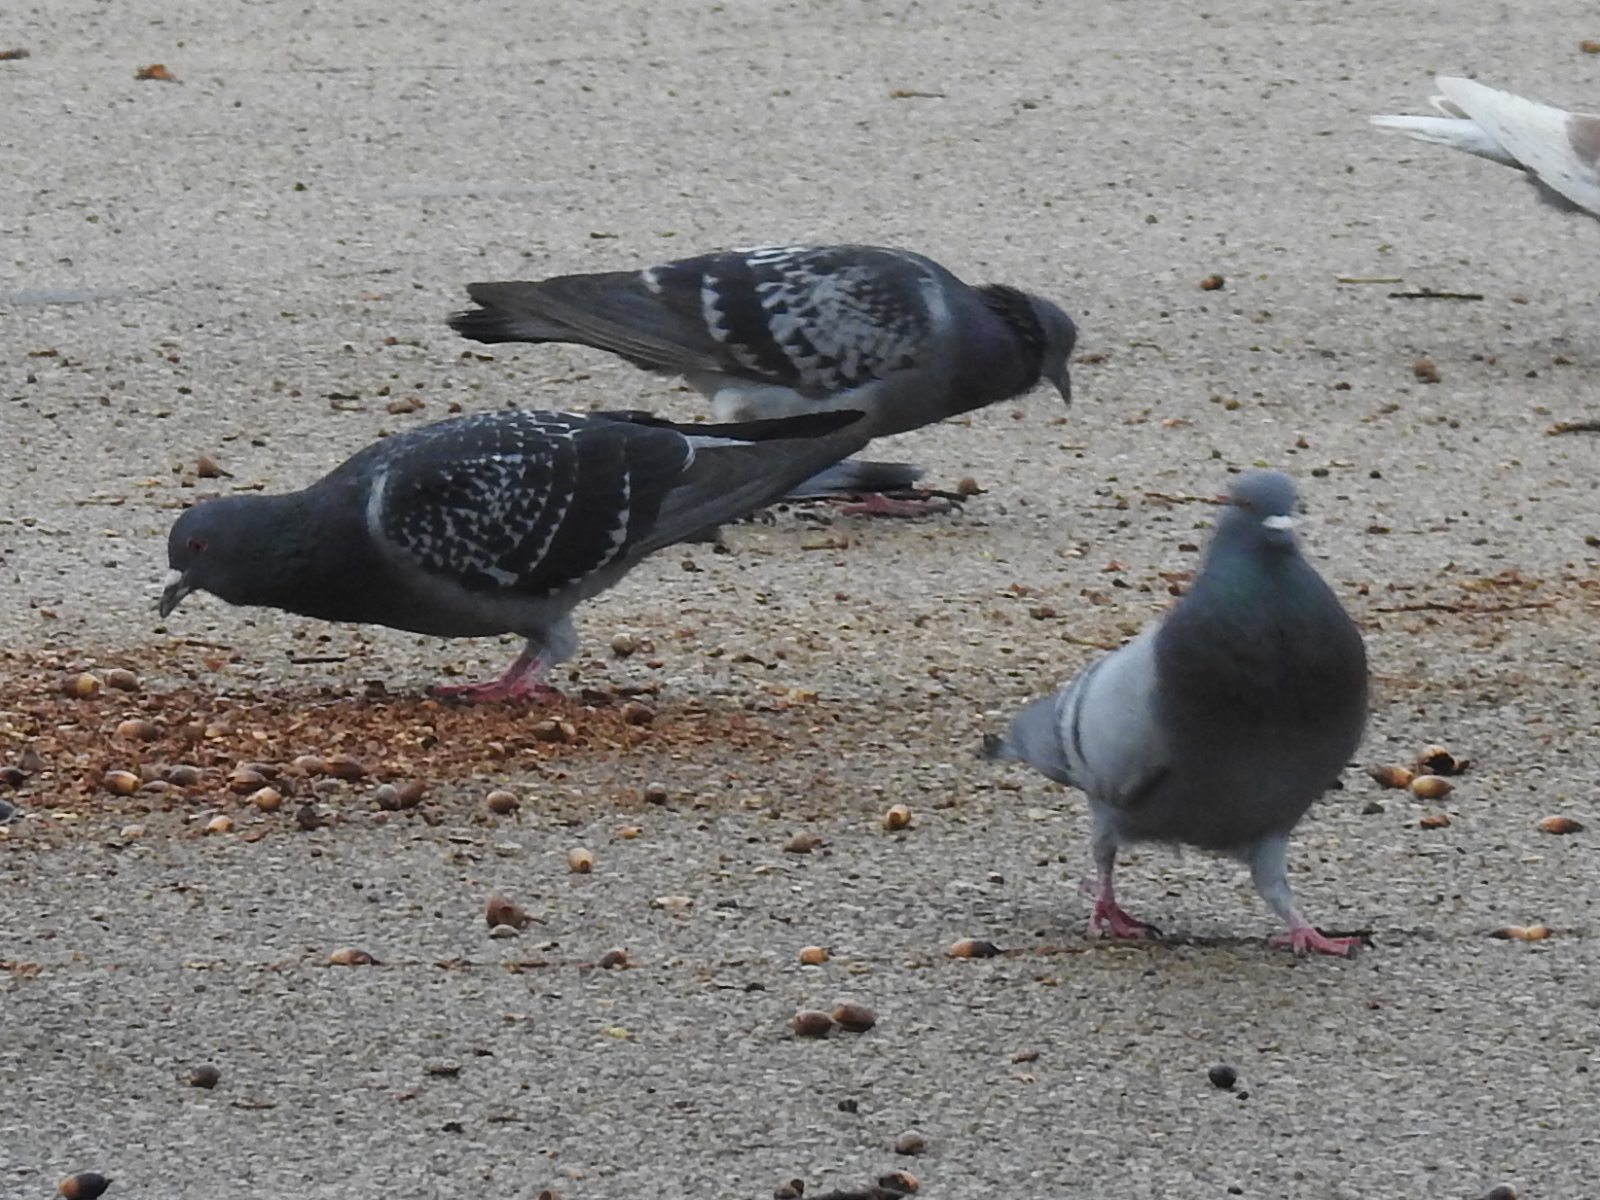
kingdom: Animalia
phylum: Chordata
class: Aves
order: Columbiformes
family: Columbidae
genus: Columba
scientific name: Columba livia
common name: Rock pigeon
